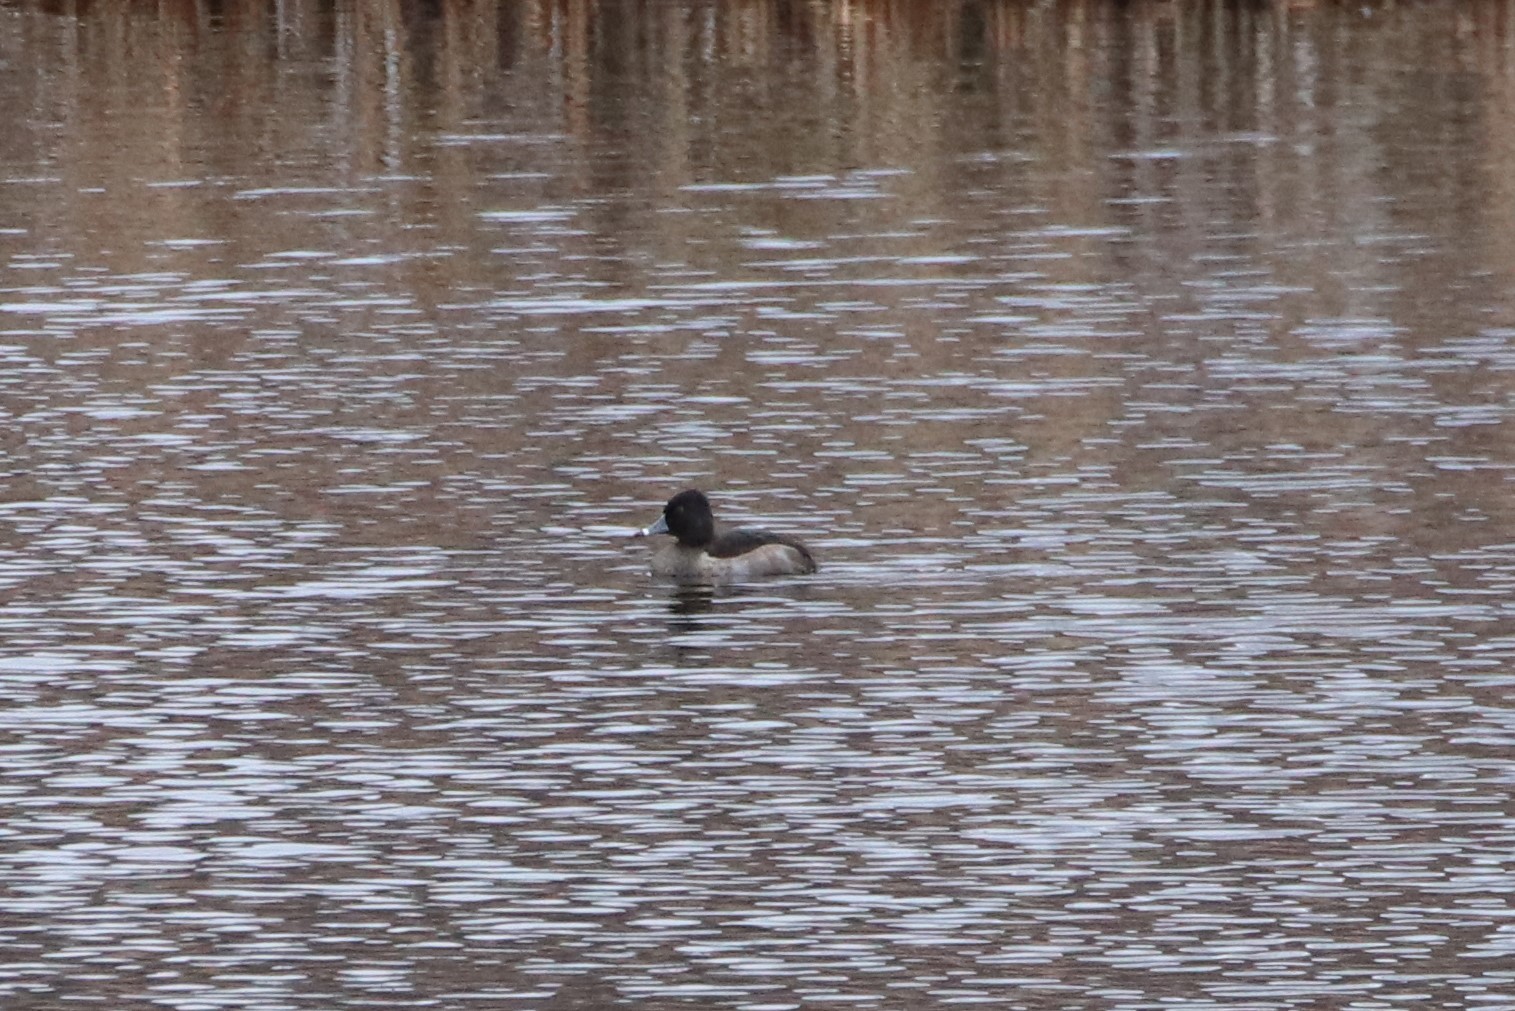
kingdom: Animalia
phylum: Chordata
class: Aves
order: Anseriformes
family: Anatidae
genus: Aythya
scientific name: Aythya collaris
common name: Ring-necked duck
